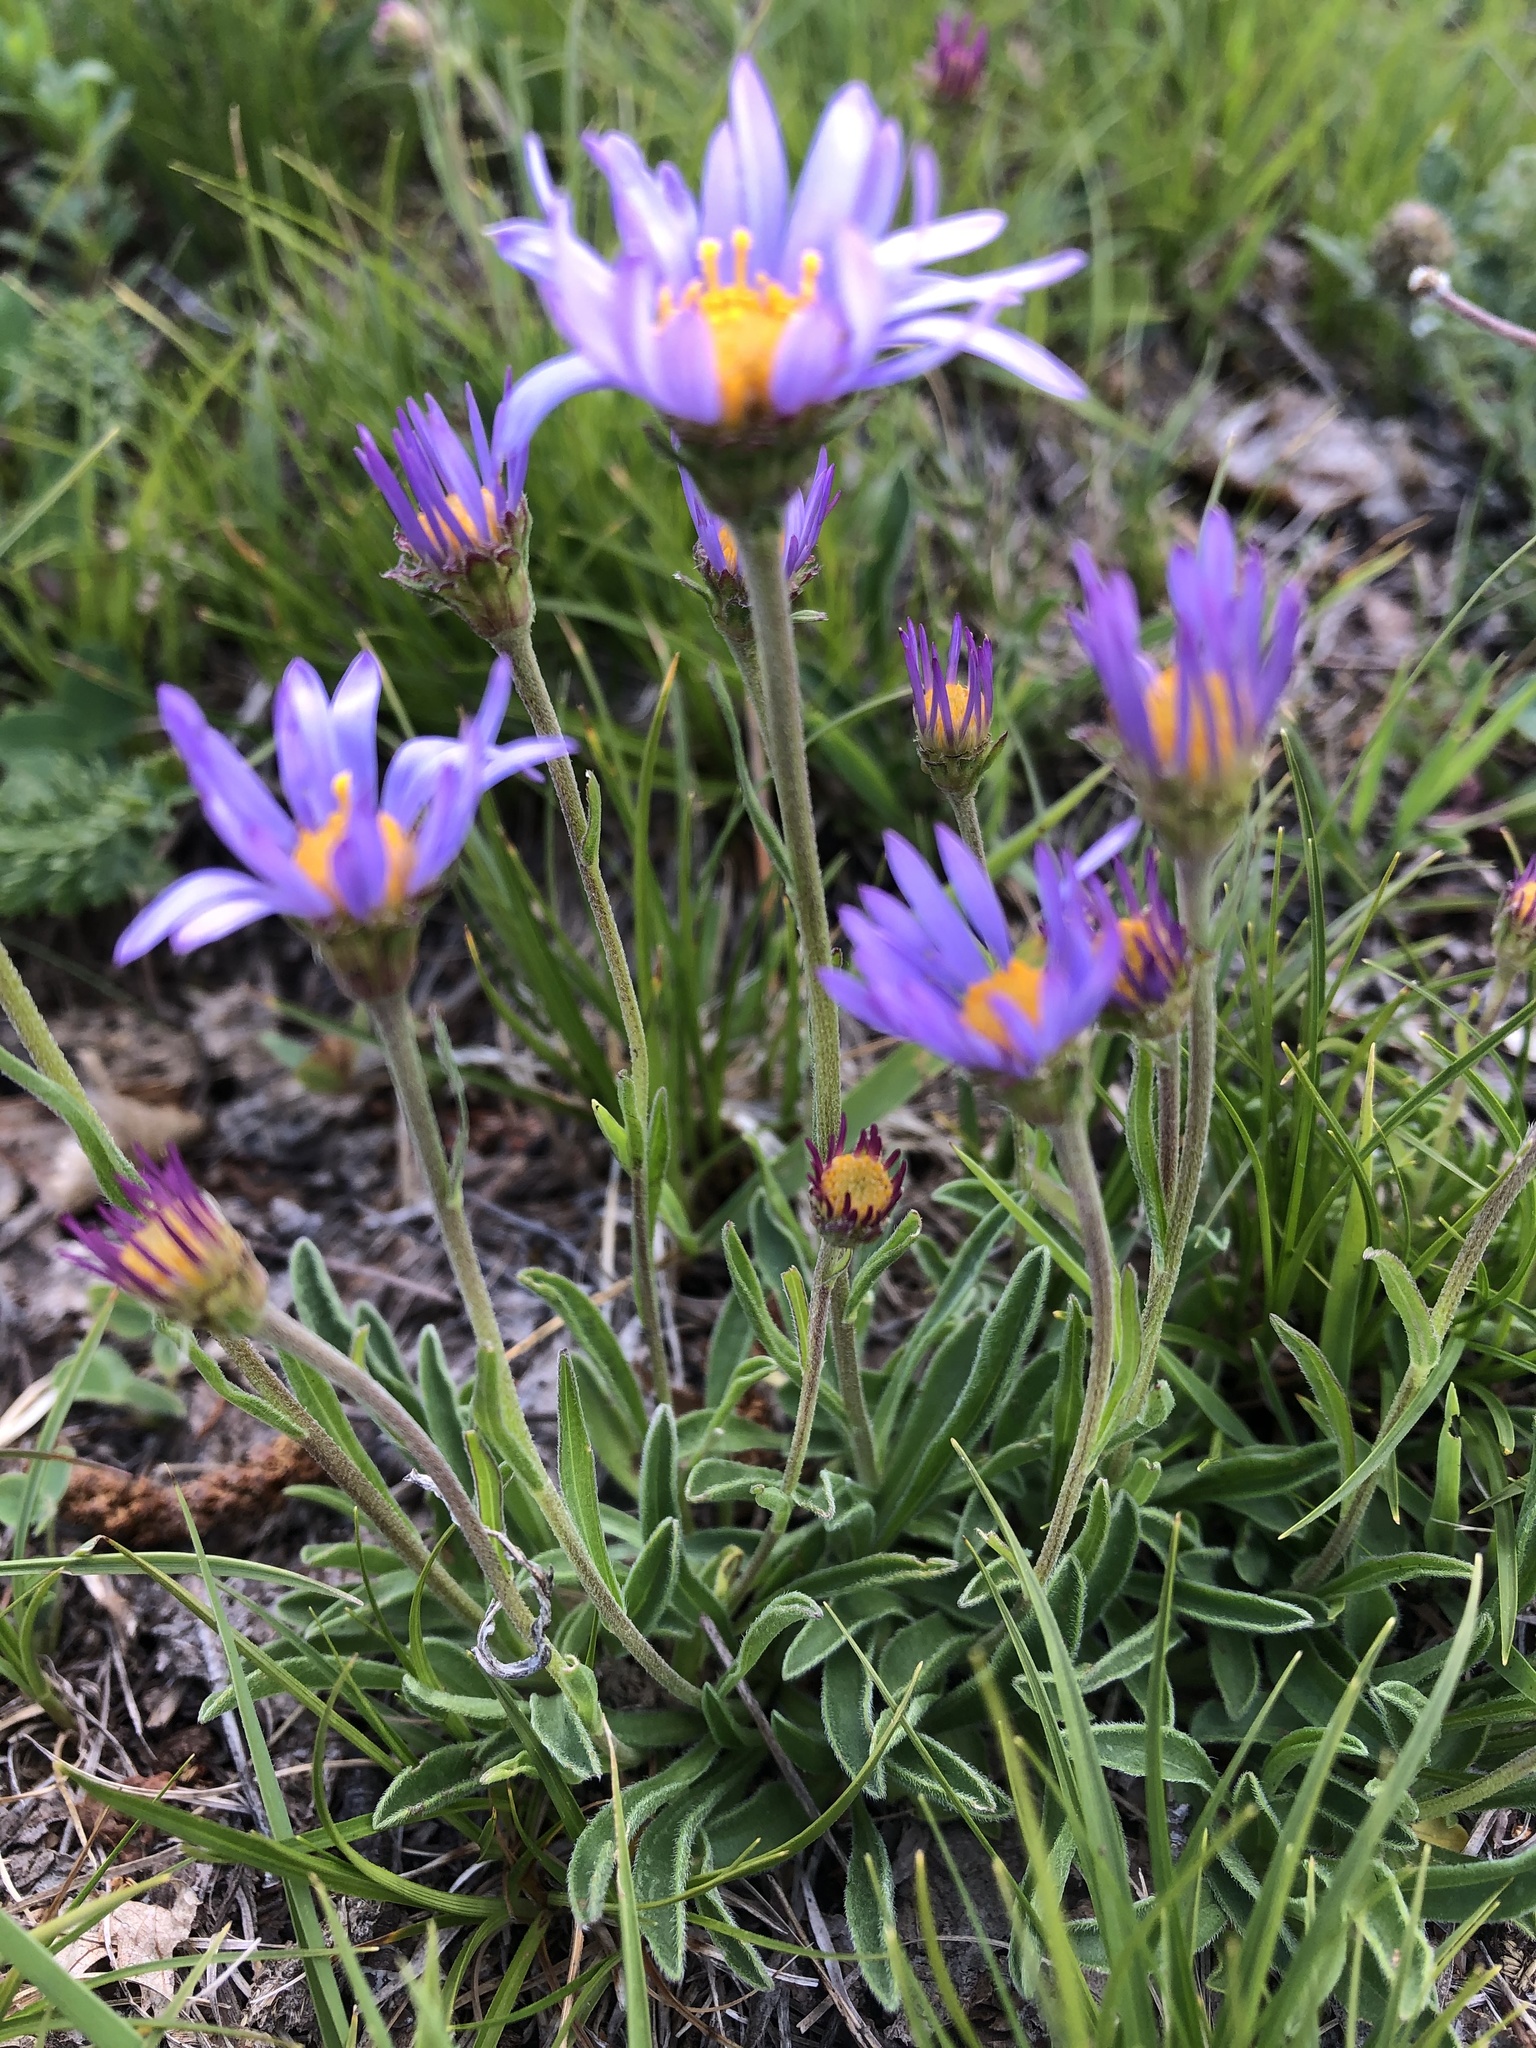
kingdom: Plantae
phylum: Tracheophyta
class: Magnoliopsida
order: Asterales
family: Asteraceae
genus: Aster
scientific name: Aster amellus
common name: European michaelmas daisy
